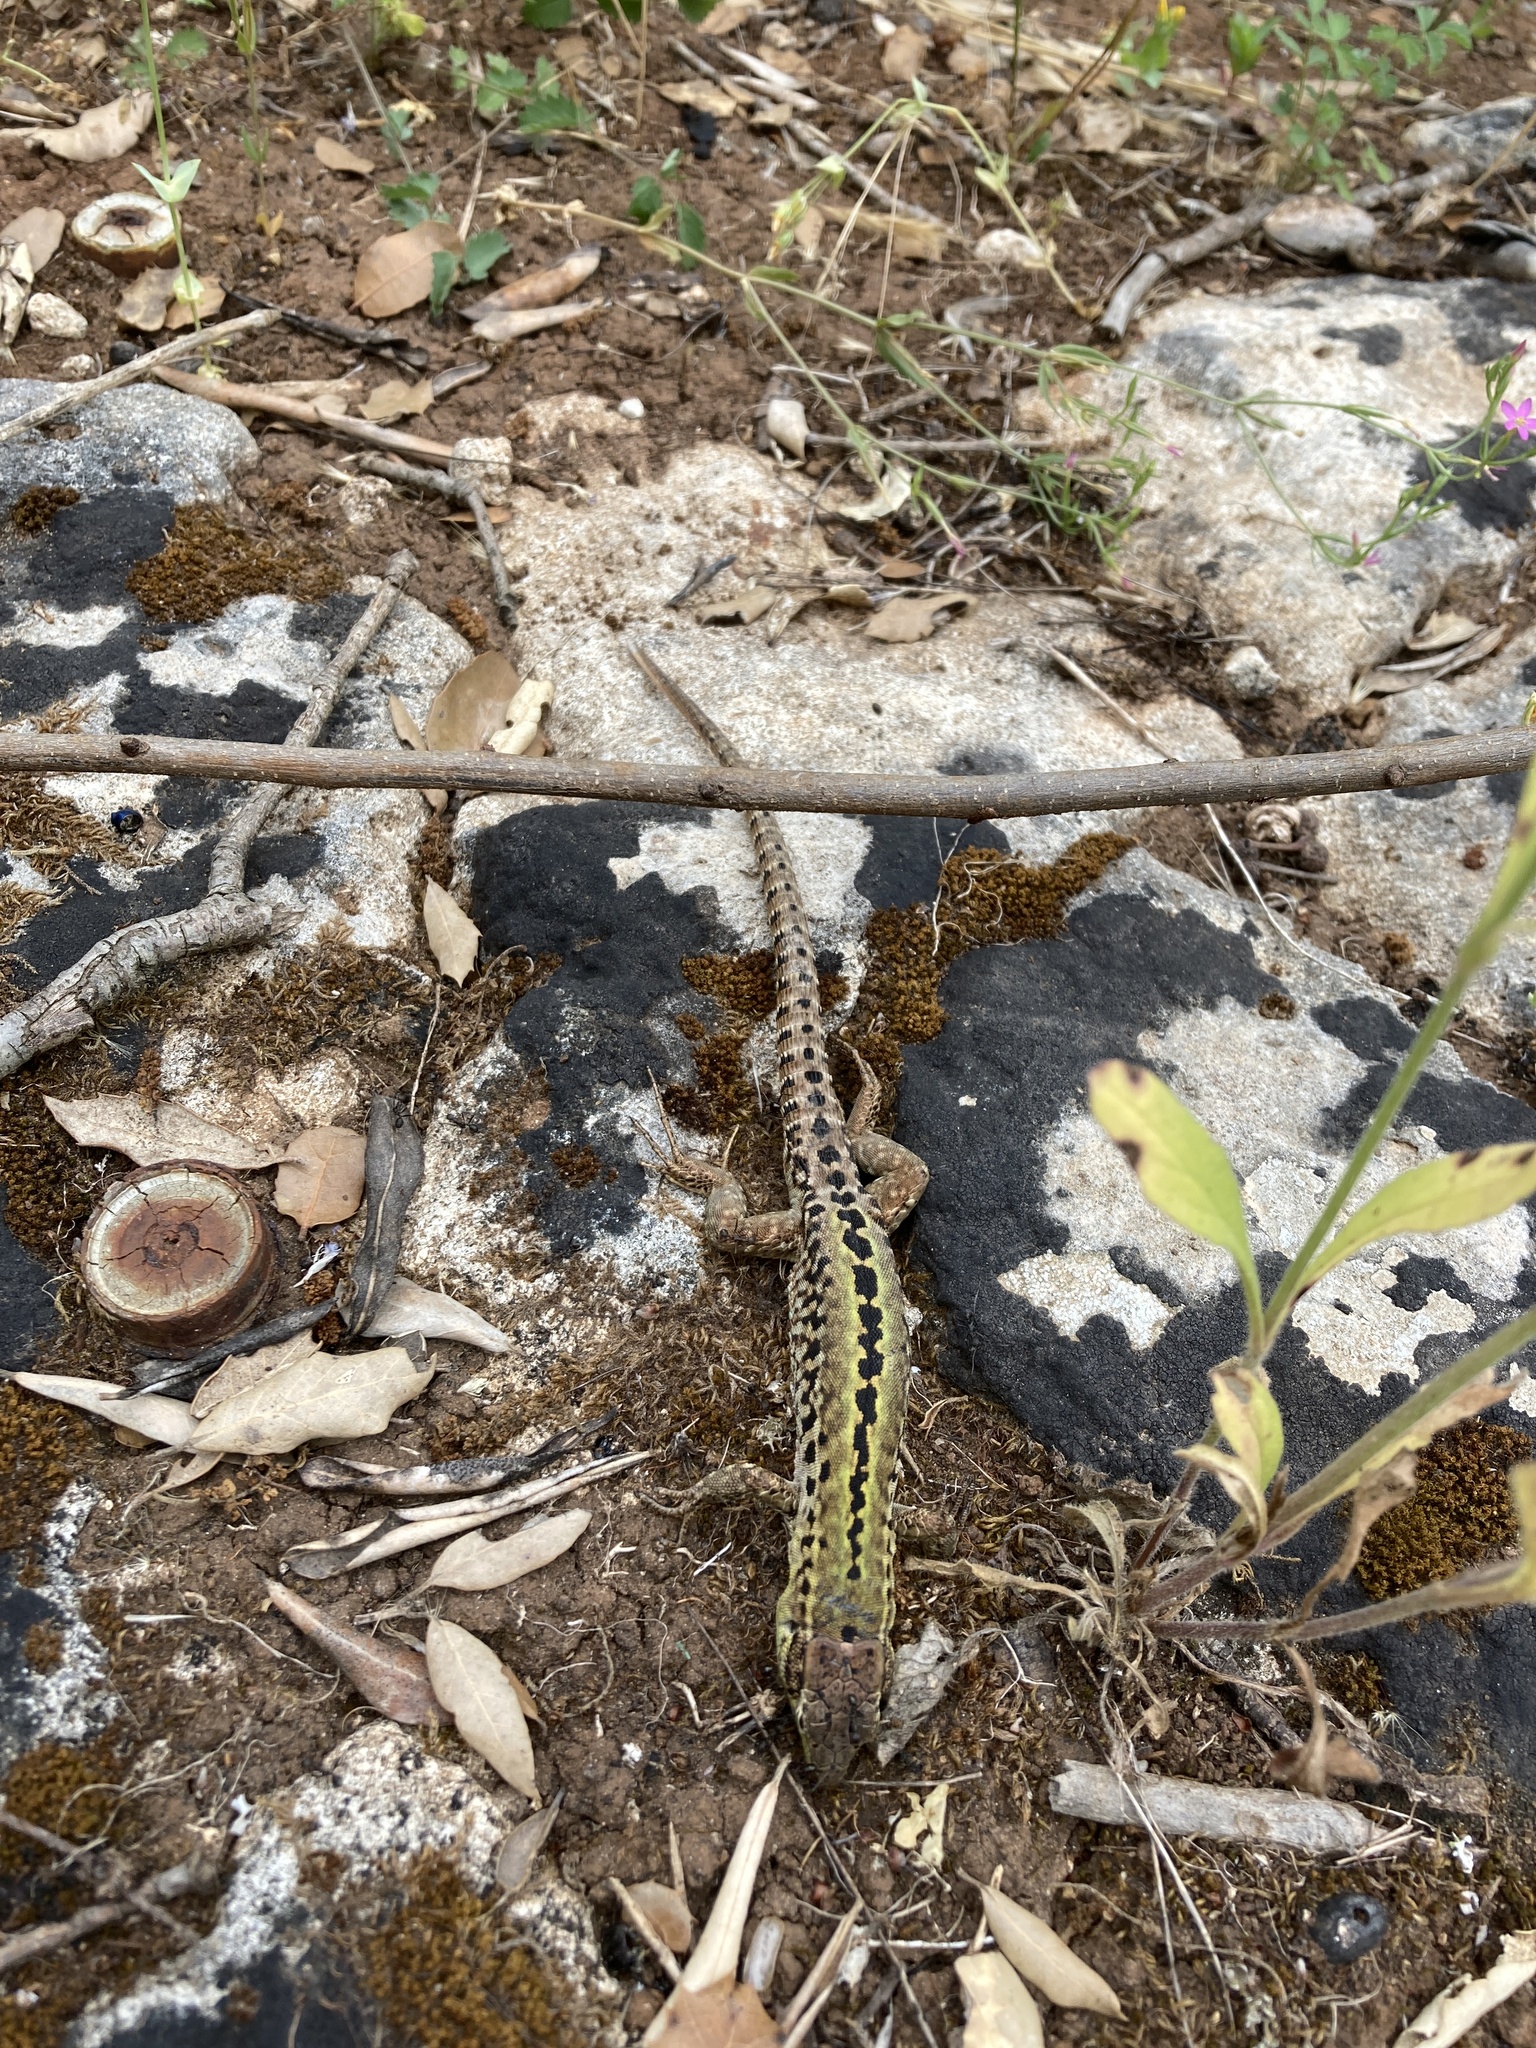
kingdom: Animalia
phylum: Chordata
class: Squamata
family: Lacertidae
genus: Podarcis
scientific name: Podarcis siculus
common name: Italian wall lizard
